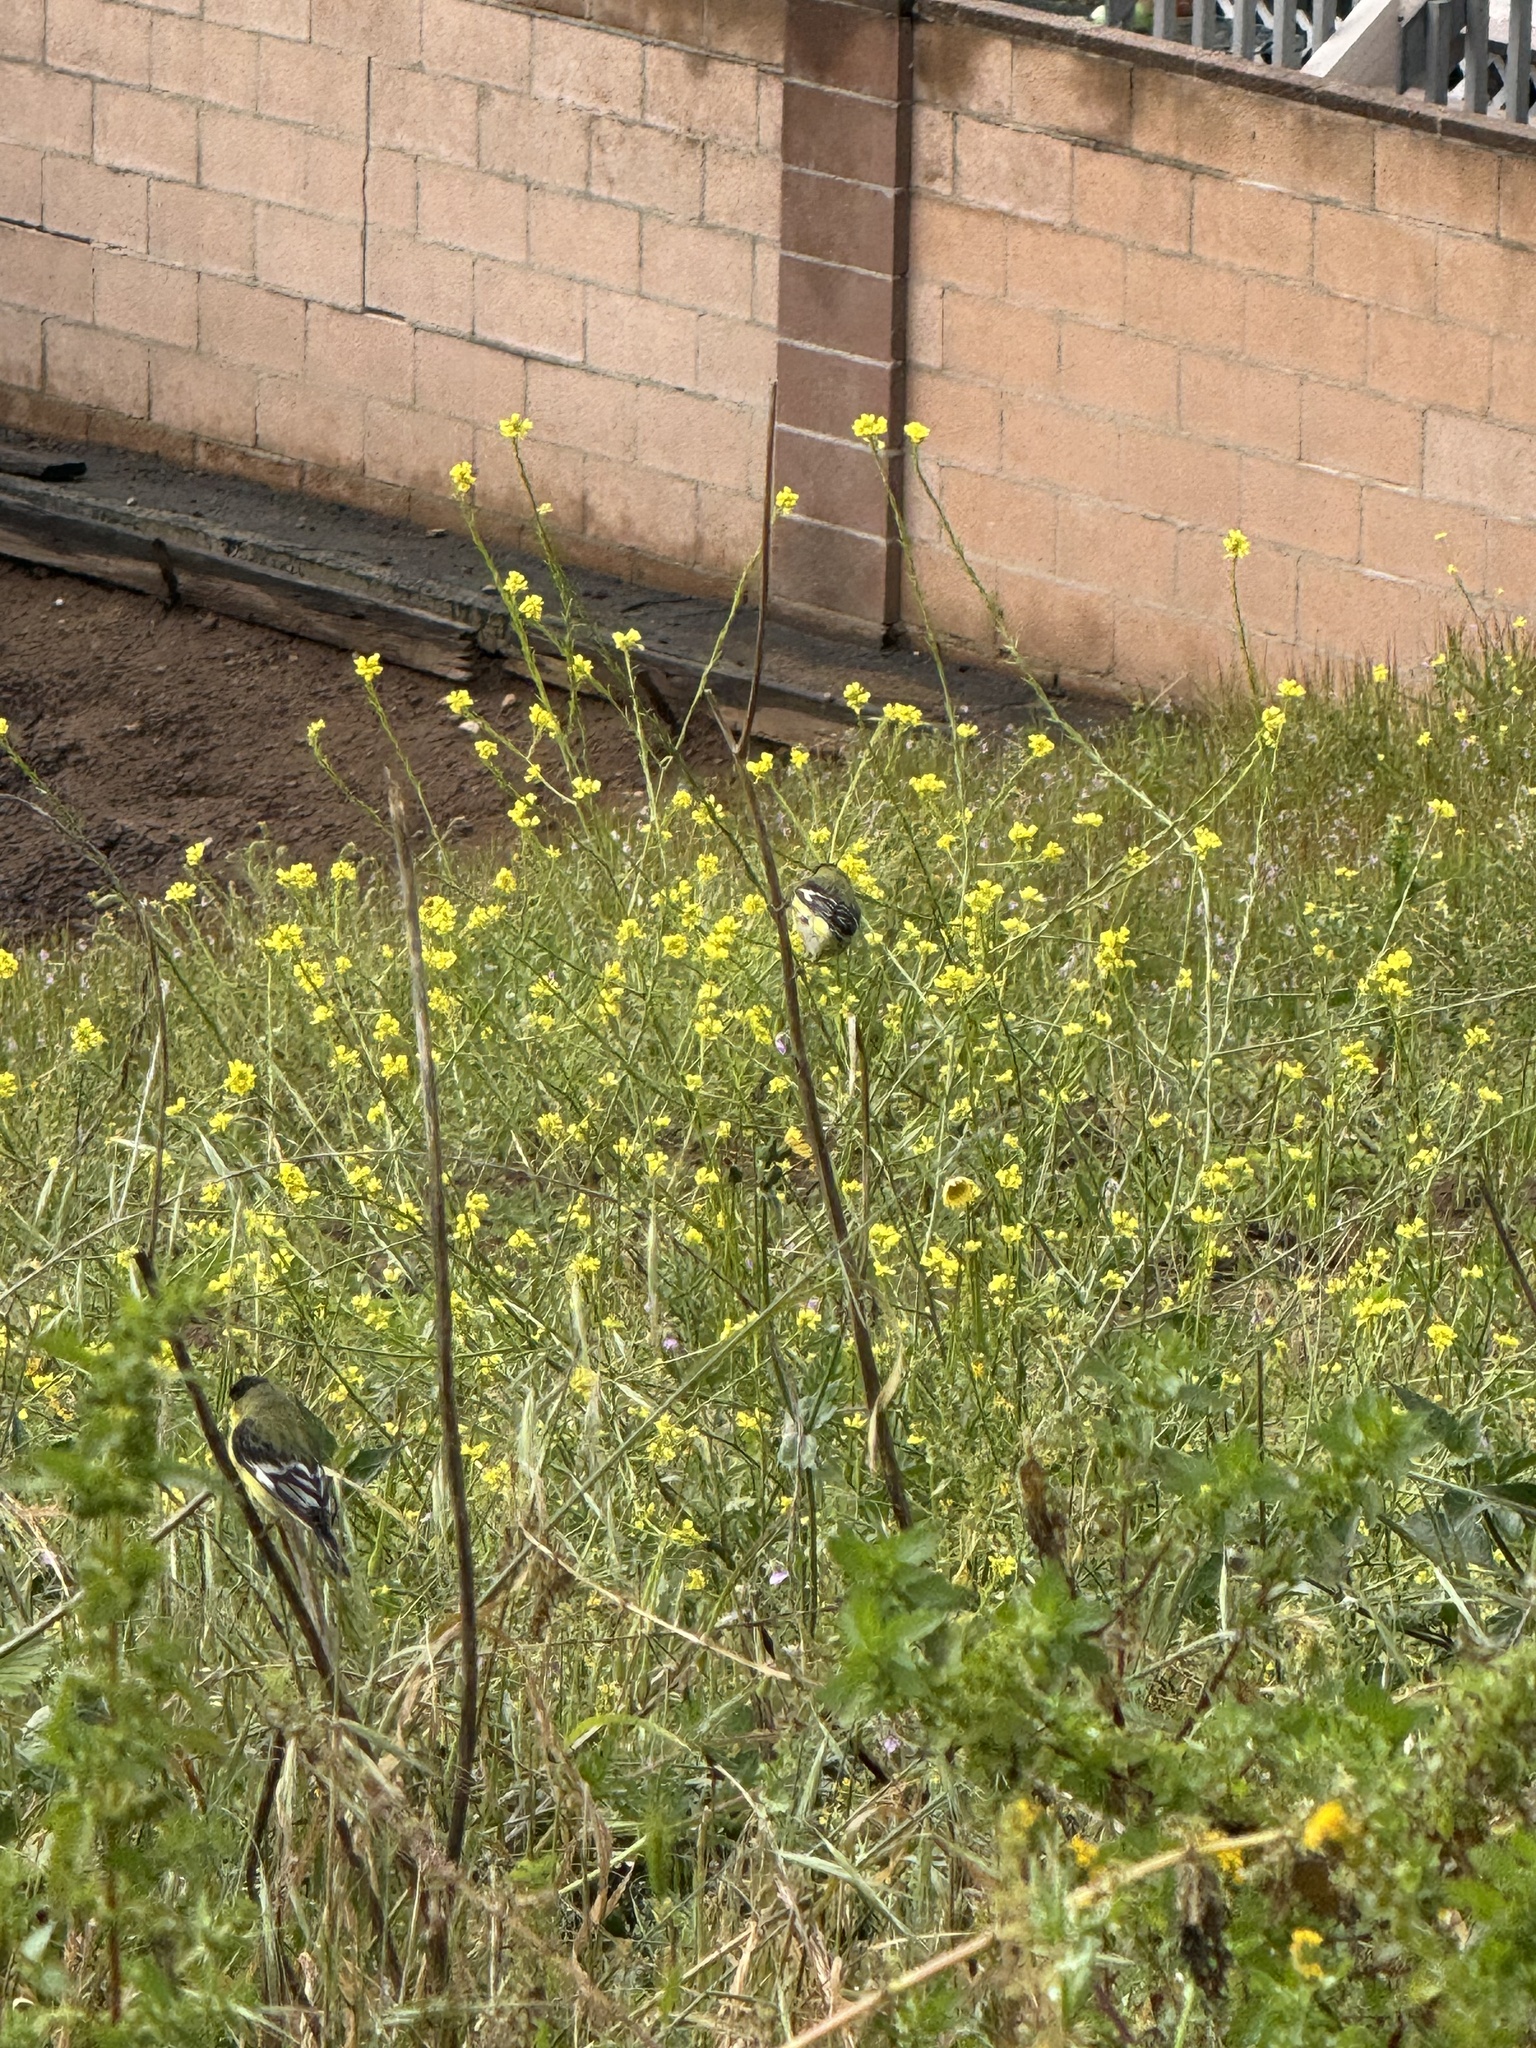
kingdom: Animalia
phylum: Chordata
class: Aves
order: Passeriformes
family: Fringillidae
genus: Spinus
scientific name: Spinus psaltria
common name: Lesser goldfinch
